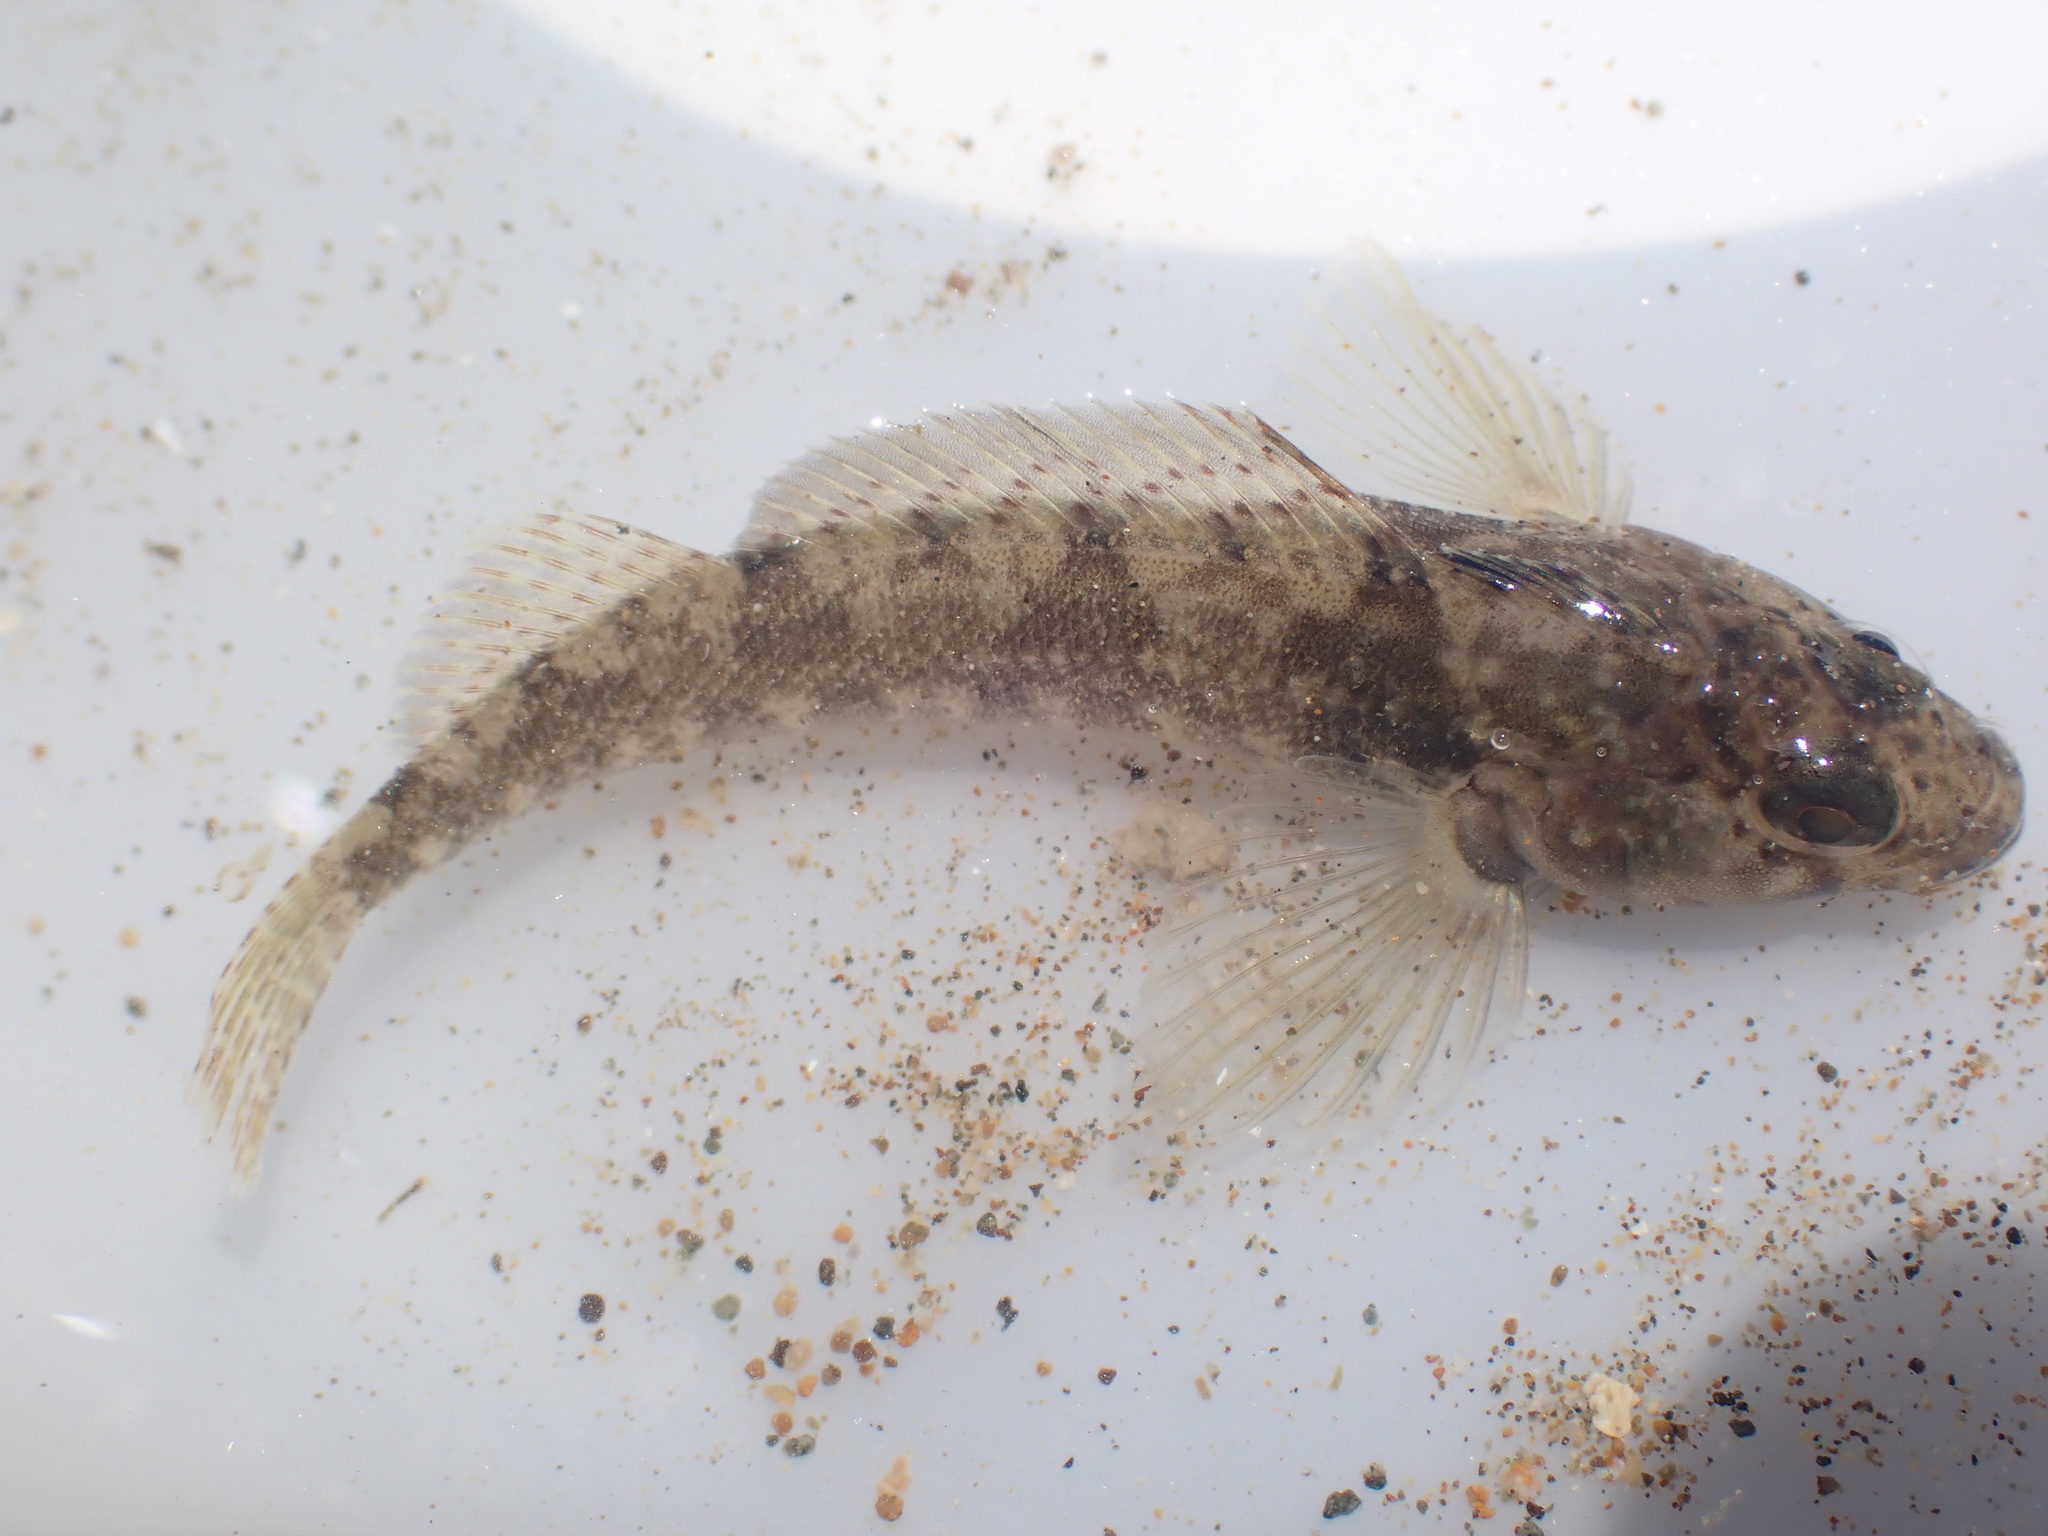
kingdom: Animalia
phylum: Chordata
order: Perciformes
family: Tripterygiidae
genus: Forsterygion
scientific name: Forsterygion capito
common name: Spotted robust triplefin
